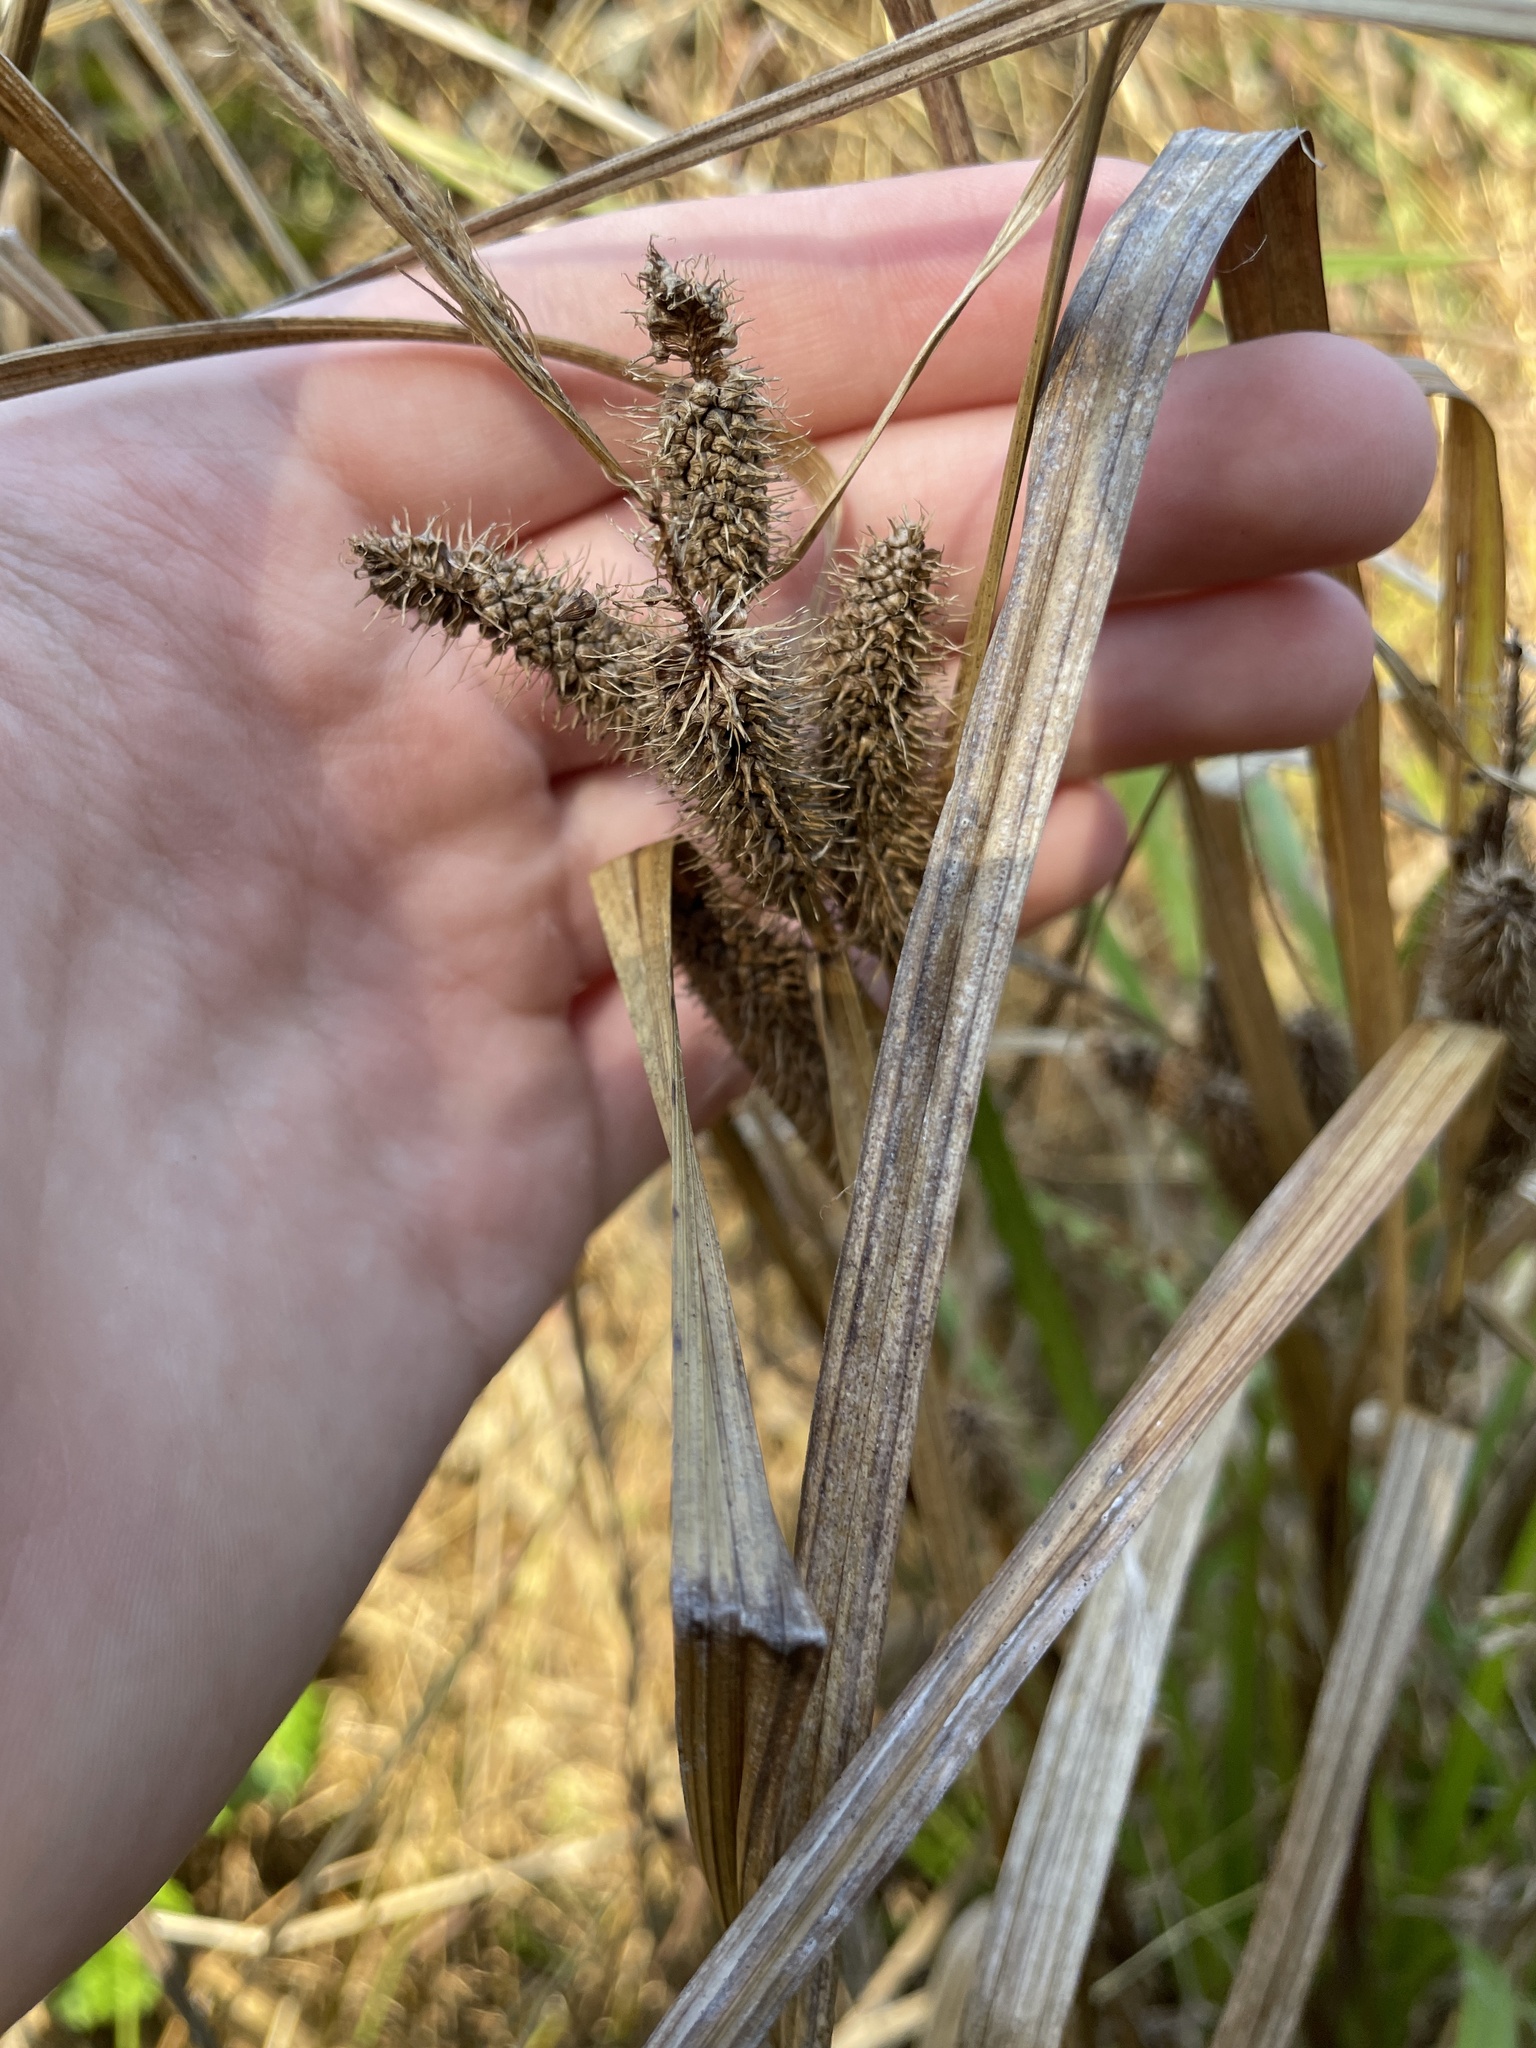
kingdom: Plantae
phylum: Tracheophyta
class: Liliopsida
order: Poales
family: Cyperaceae
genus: Carex
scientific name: Carex frankii
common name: Frank's sedge
